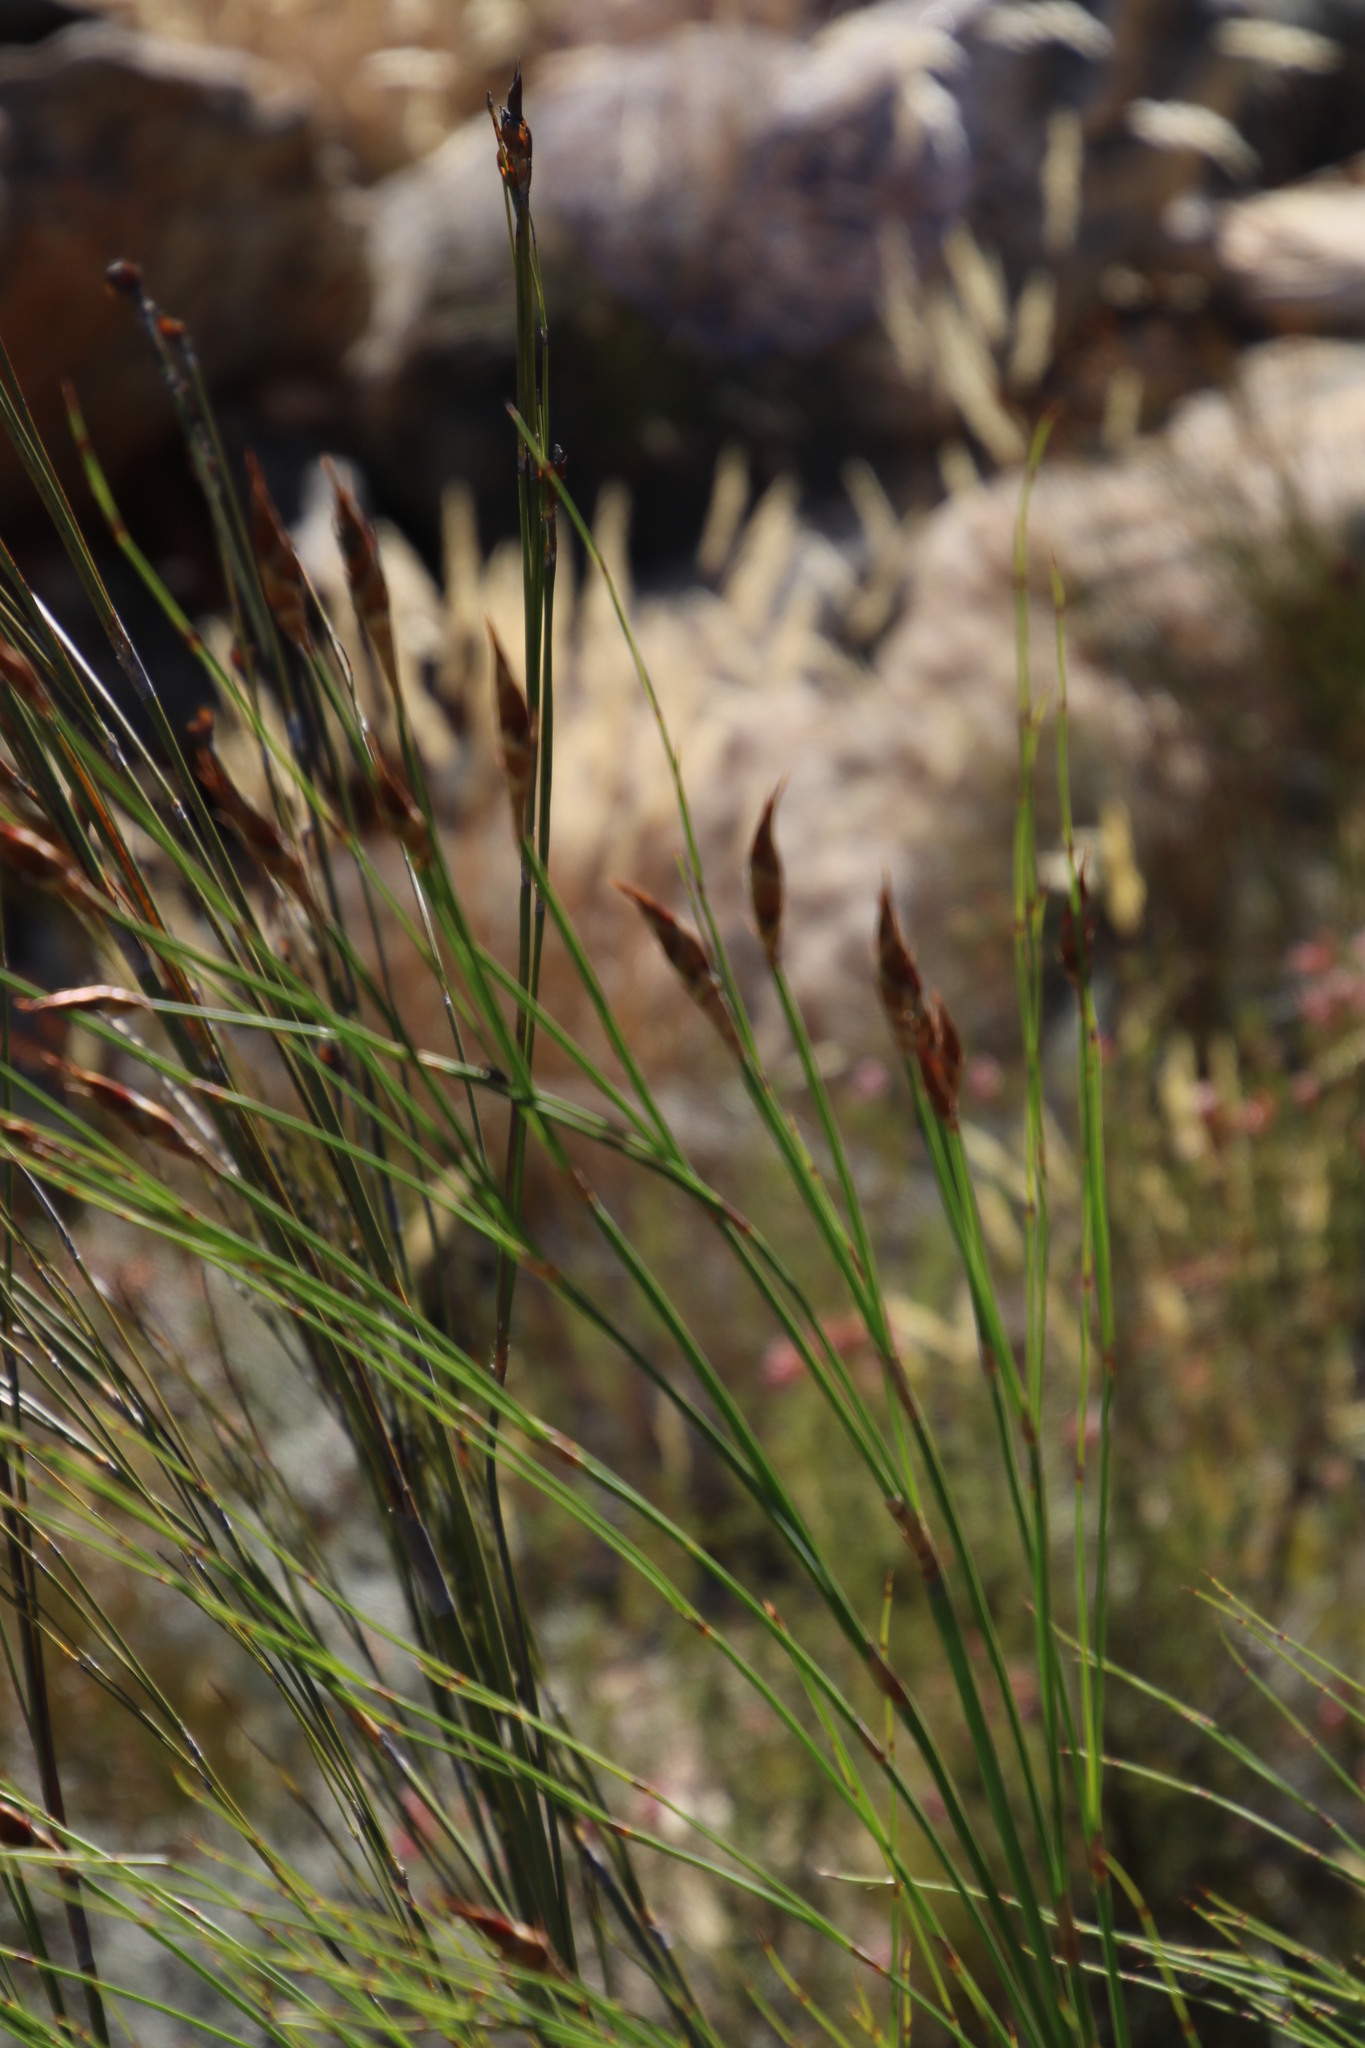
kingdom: Plantae
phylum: Tracheophyta
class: Liliopsida
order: Poales
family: Restionaceae
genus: Cannomois
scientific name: Cannomois robusta
